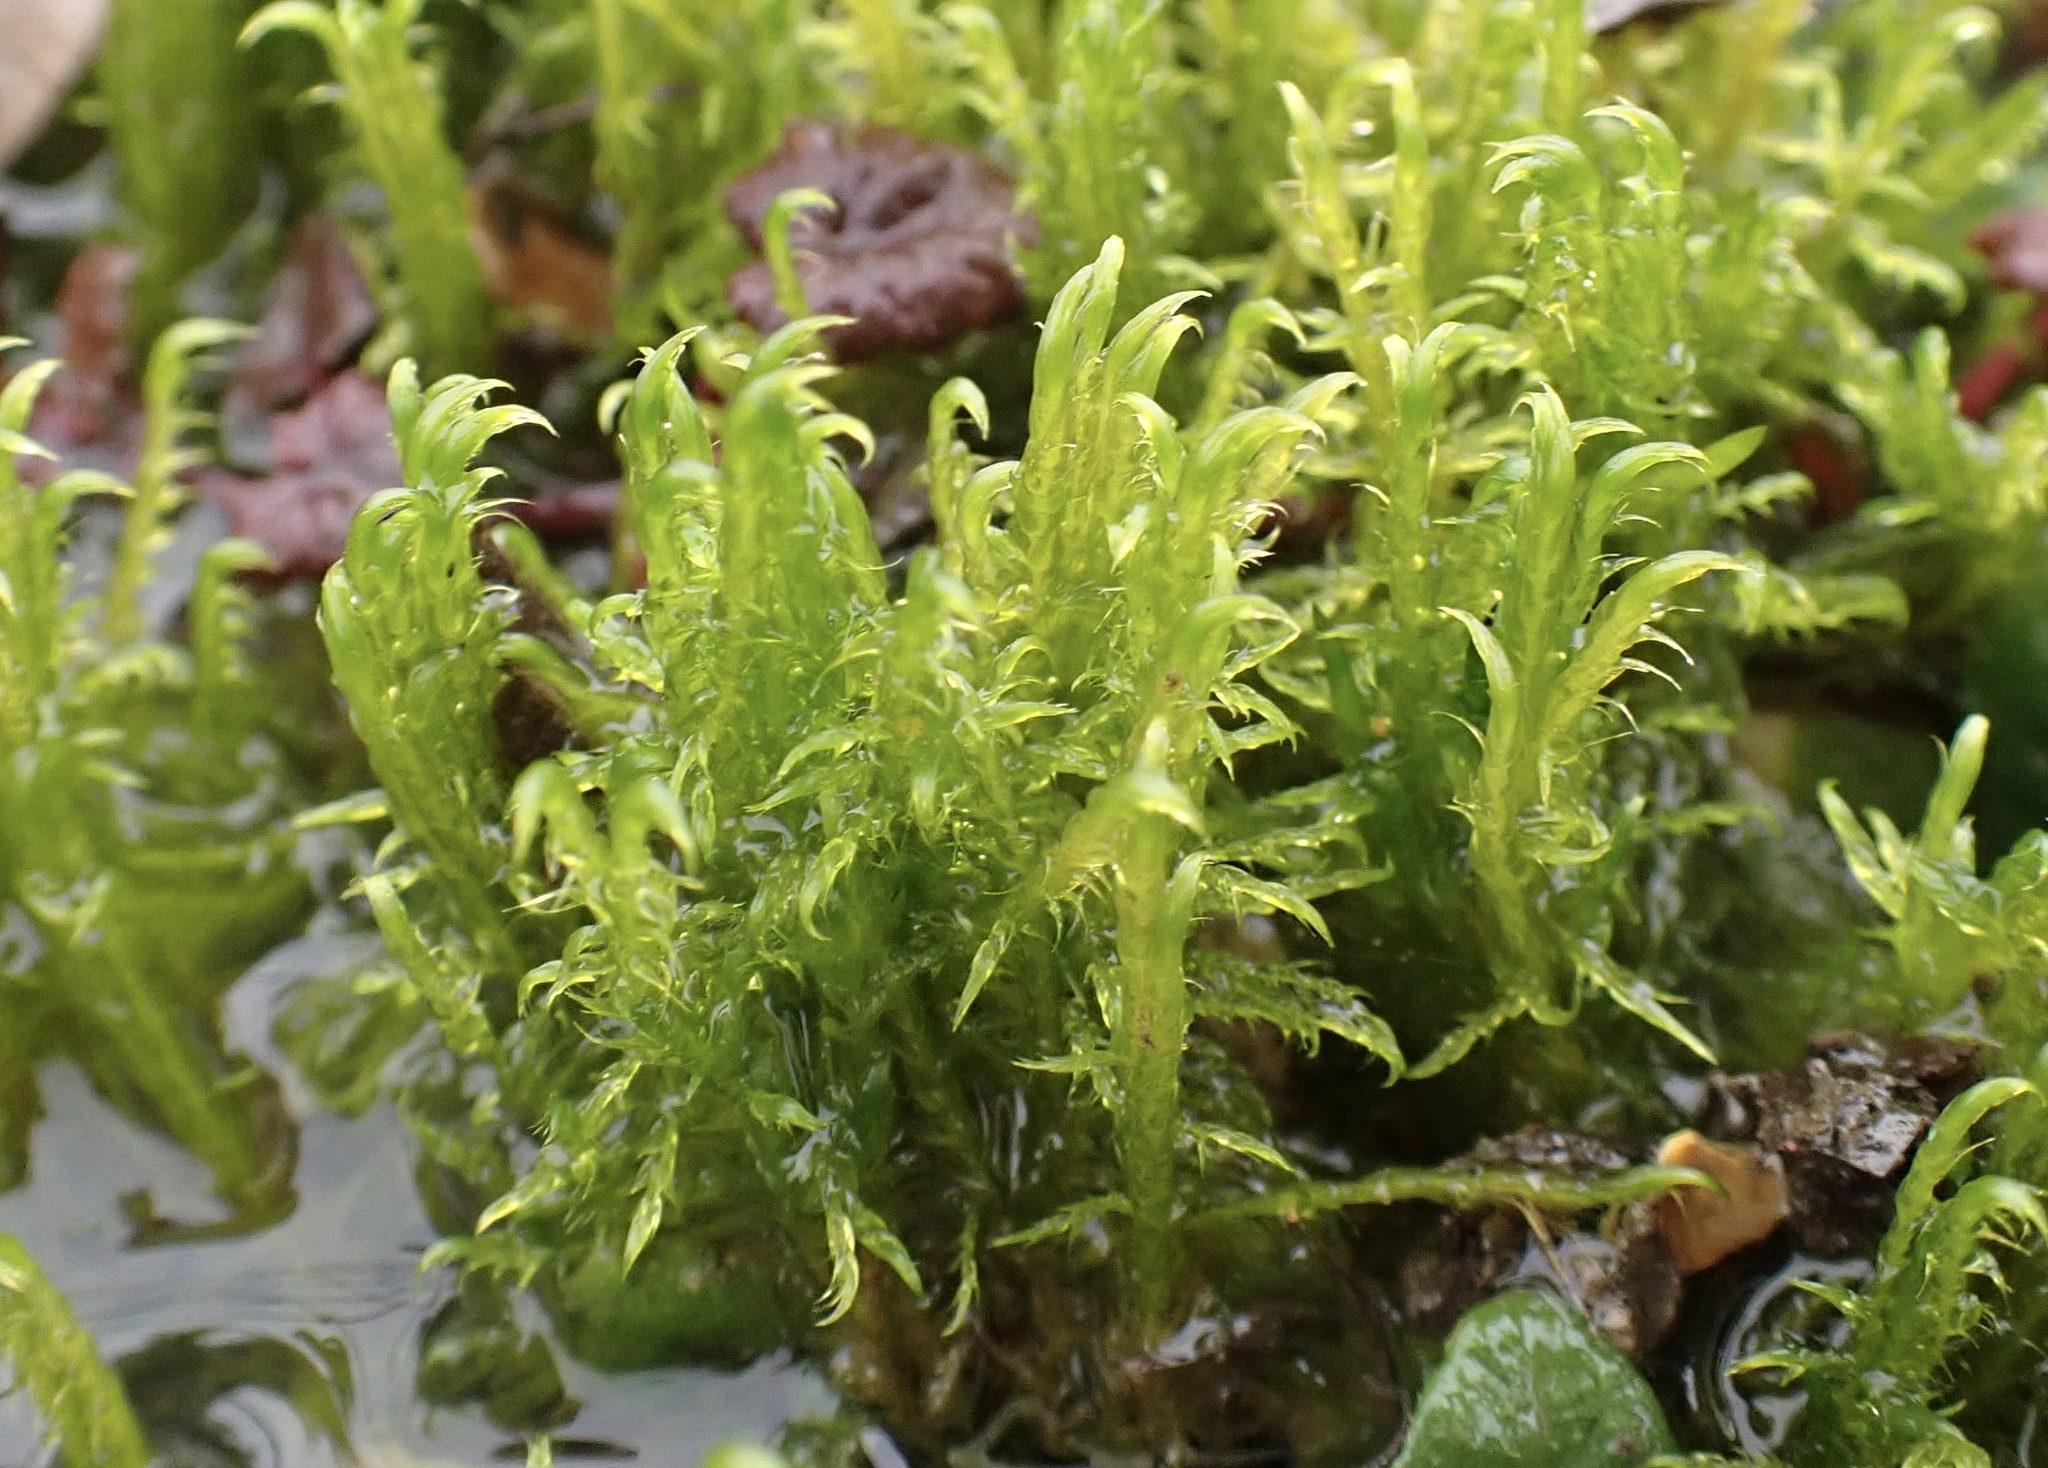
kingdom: Plantae
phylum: Bryophyta
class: Bryopsida
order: Hypnales
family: Amblystegiaceae
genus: Drepanocladus
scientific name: Drepanocladus aduncus
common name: Knieff's hook moss
